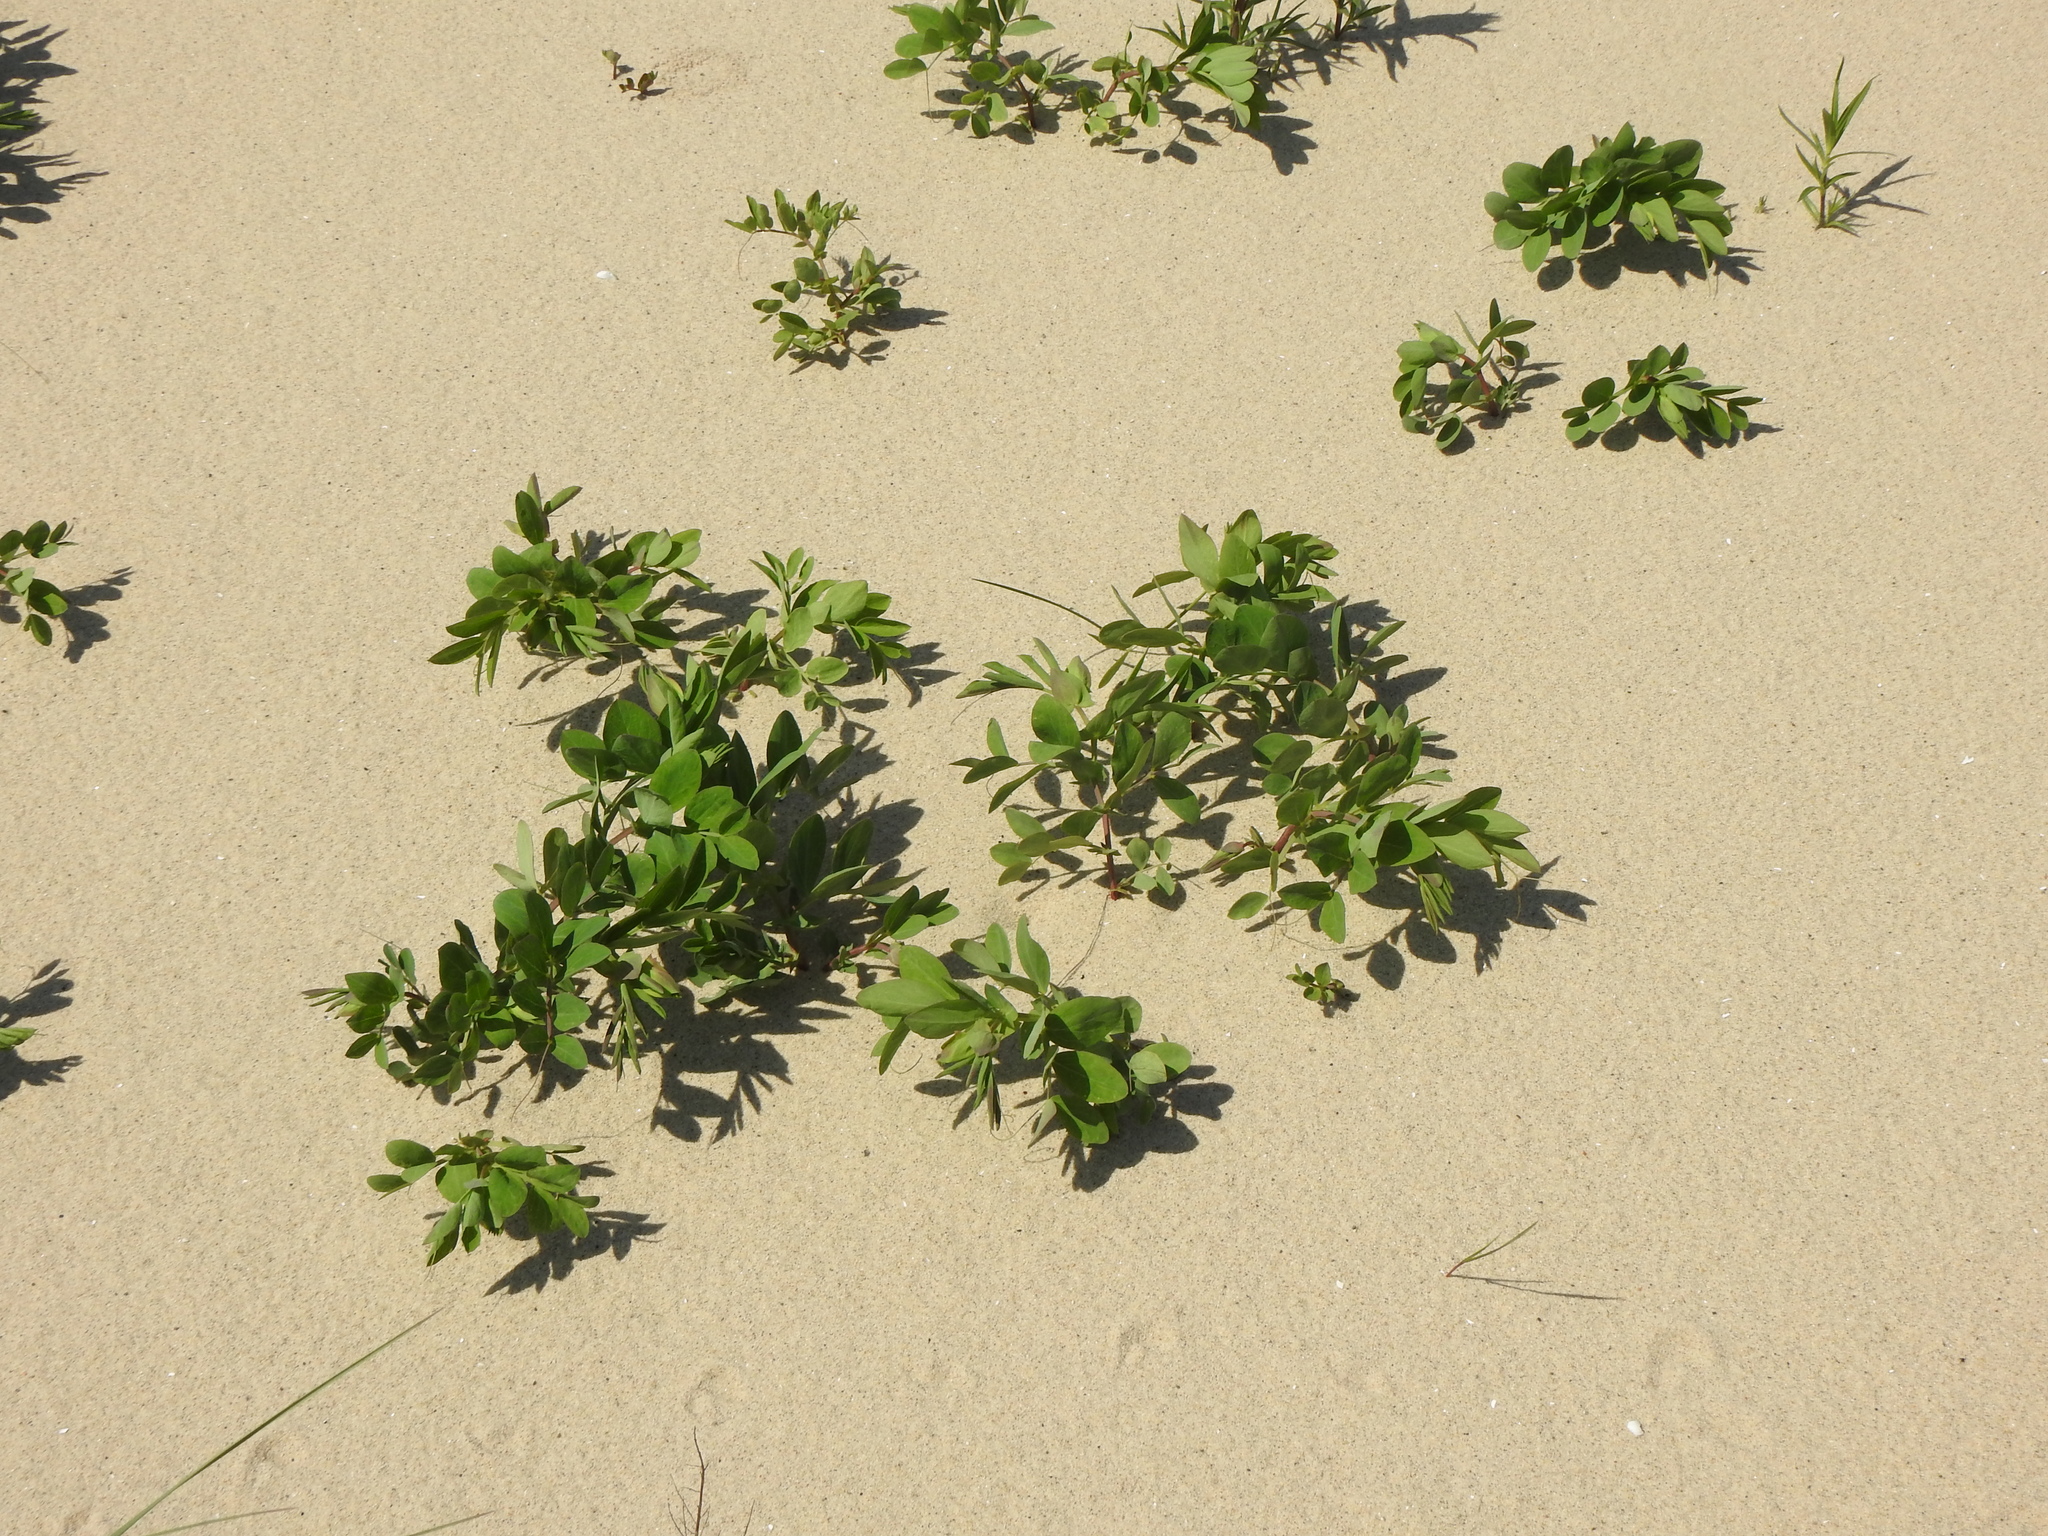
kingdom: Plantae
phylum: Tracheophyta
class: Magnoliopsida
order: Fabales
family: Fabaceae
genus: Lathyrus
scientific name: Lathyrus japonicus
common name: Sea pea
